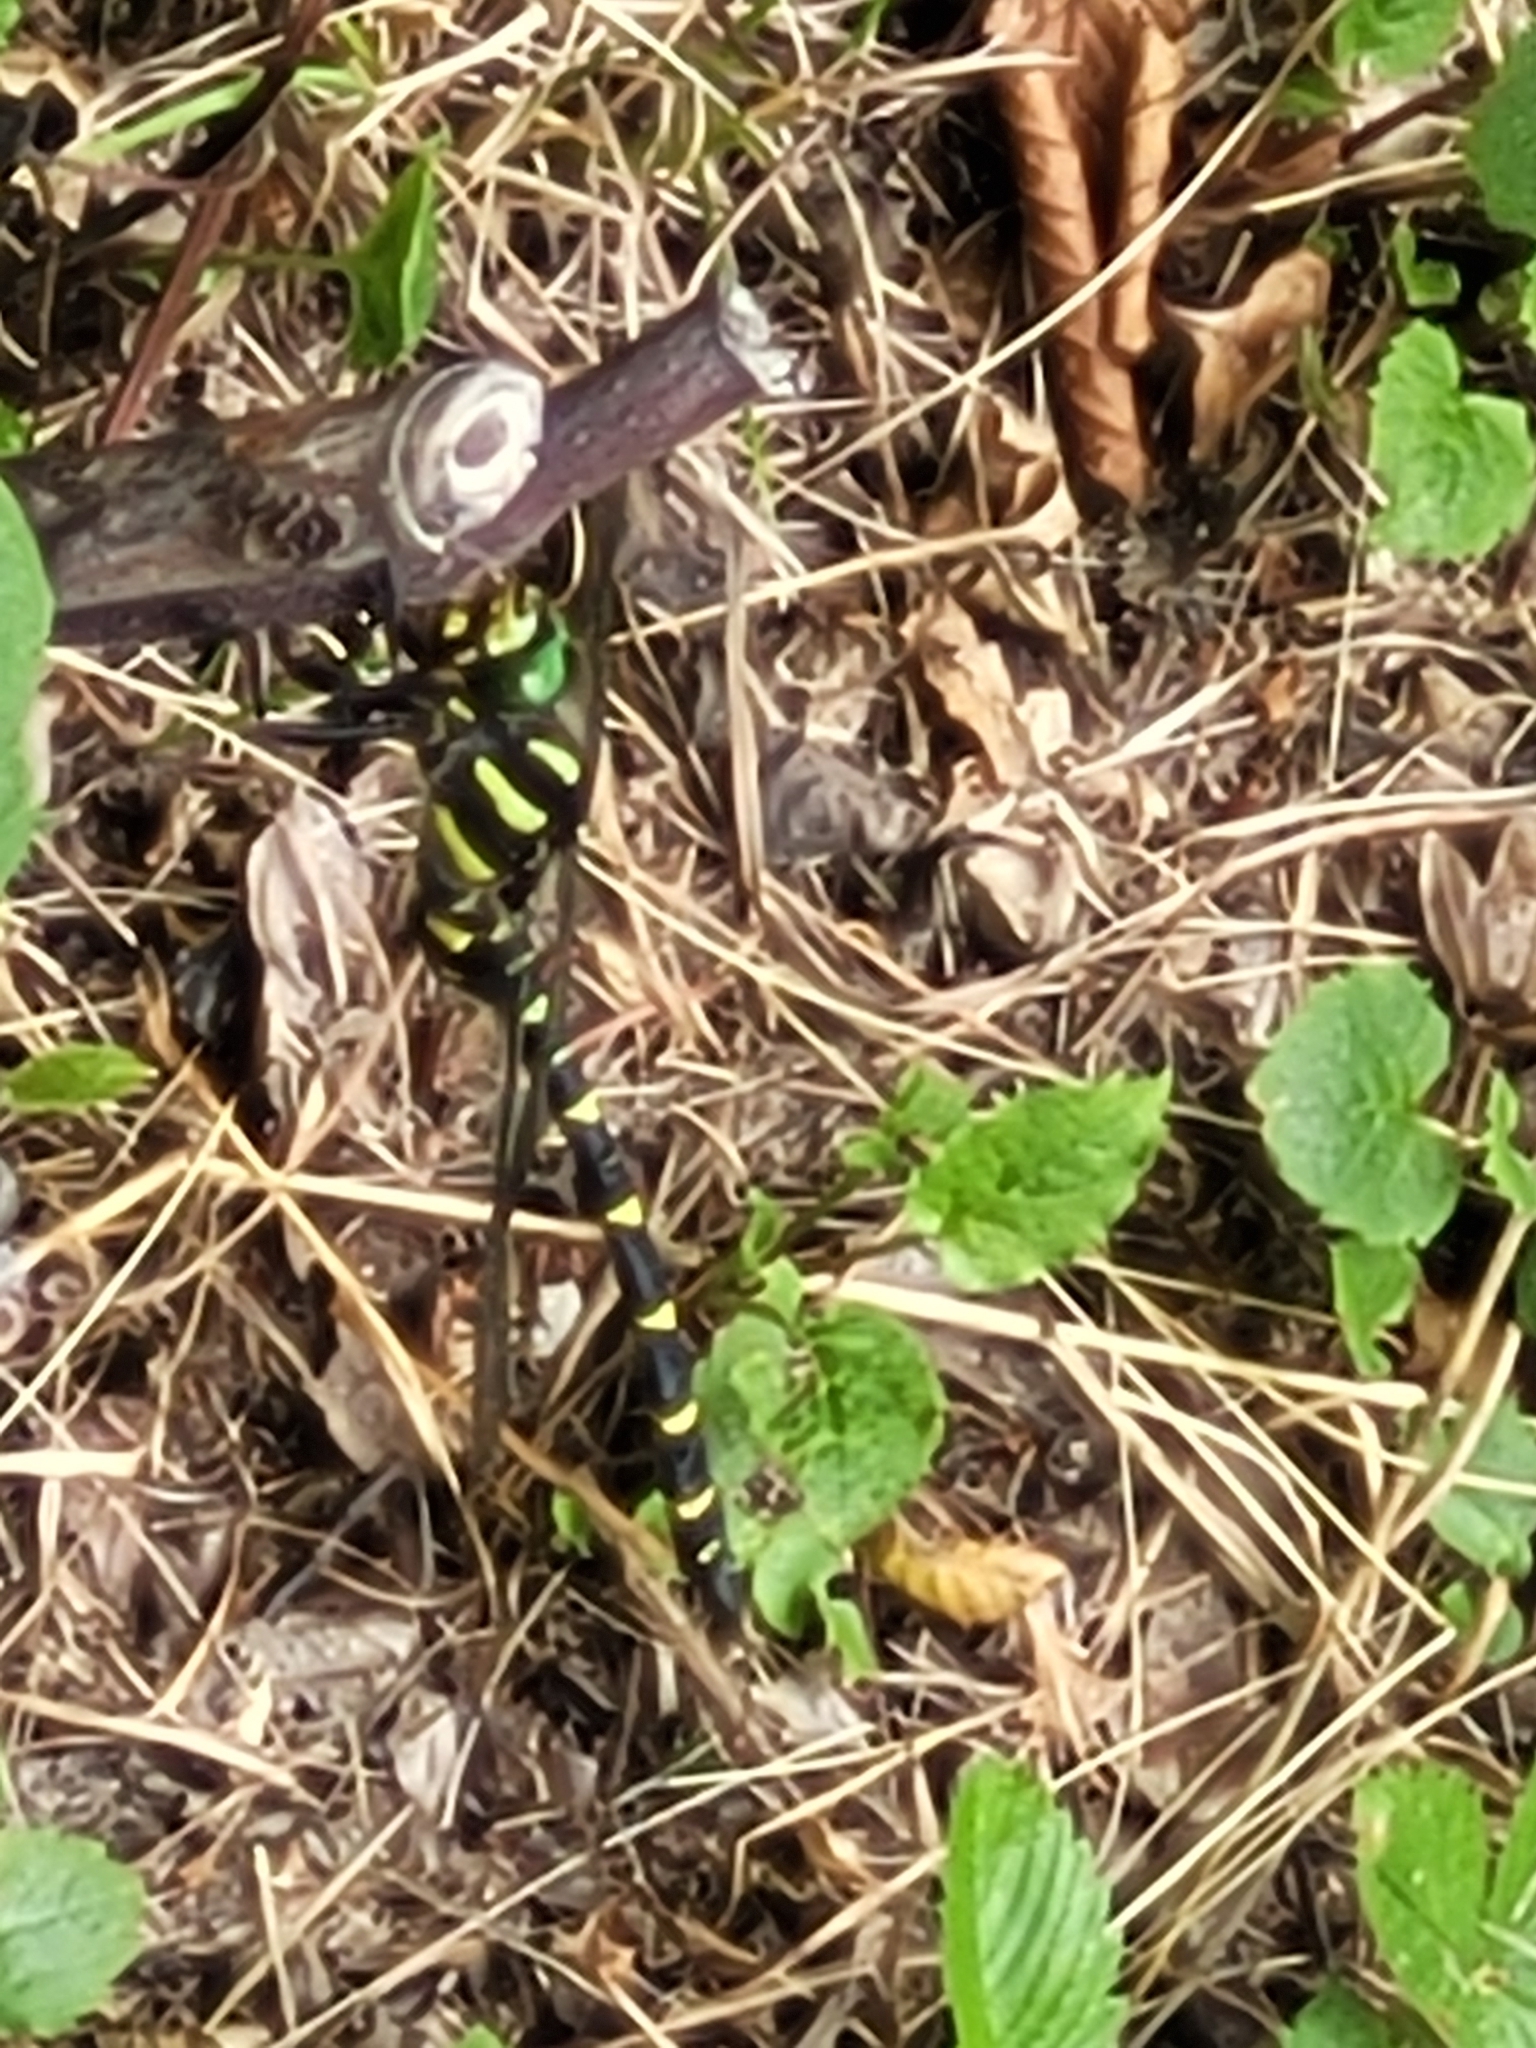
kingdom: Animalia
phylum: Arthropoda
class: Insecta
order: Odonata
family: Cordulegastridae
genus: Cordulegaster
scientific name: Cordulegaster bidentata
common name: Sombre goldenring
